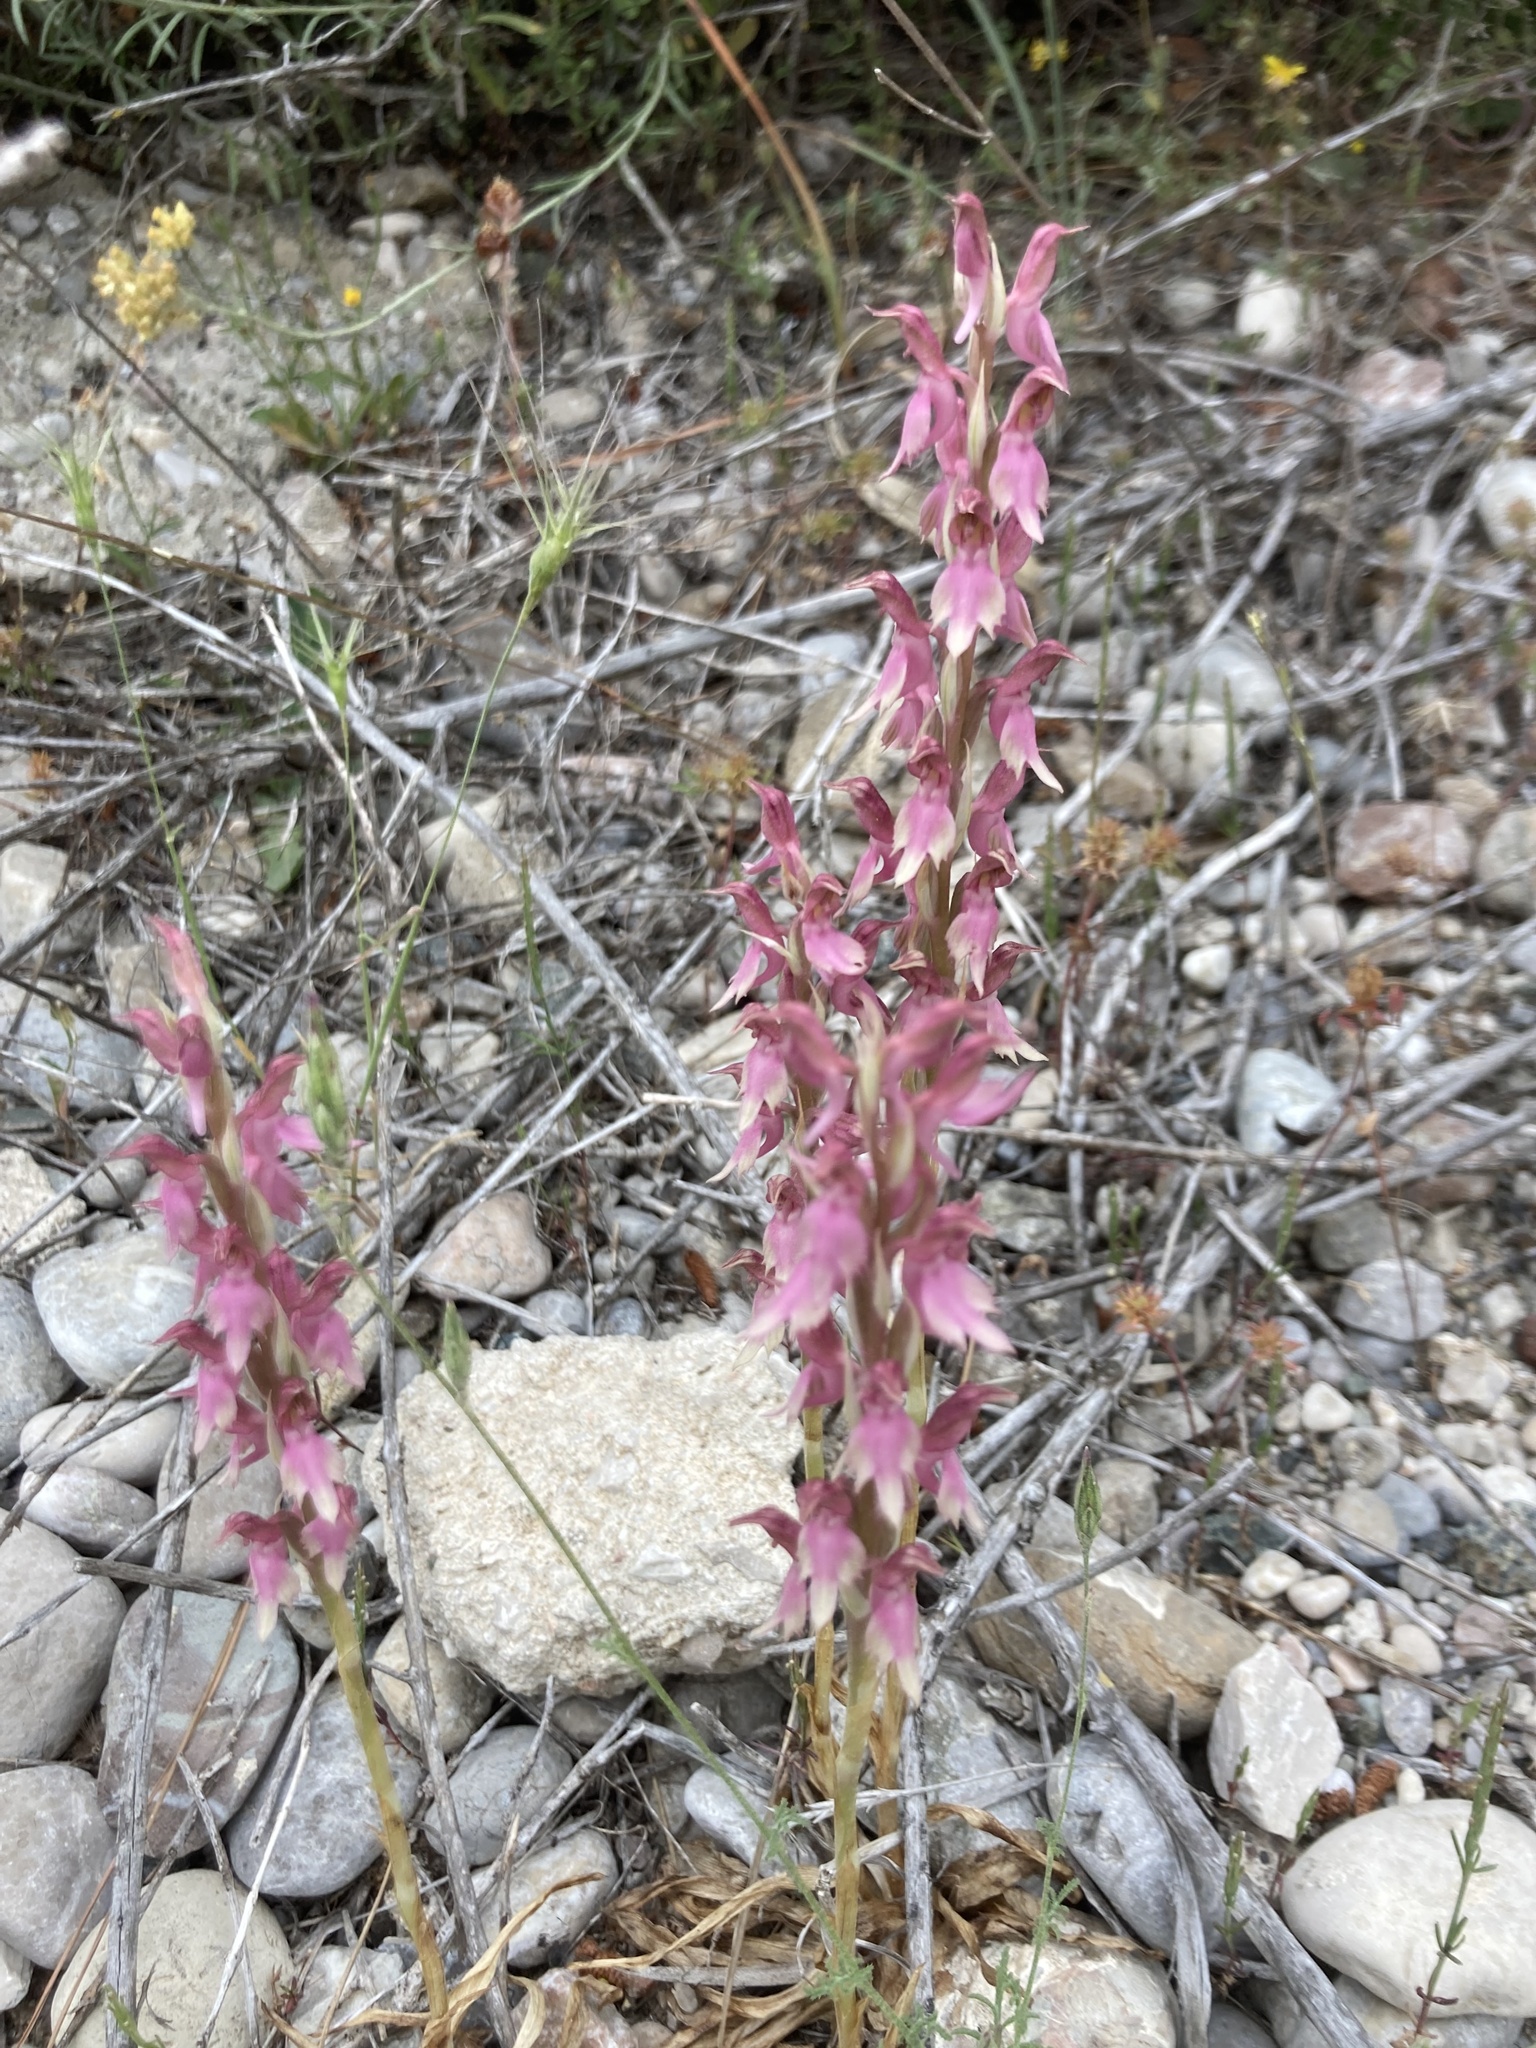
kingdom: Plantae
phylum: Tracheophyta
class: Liliopsida
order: Asparagales
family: Orchidaceae
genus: Anacamptis
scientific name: Anacamptis sancta
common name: Holy orchid
